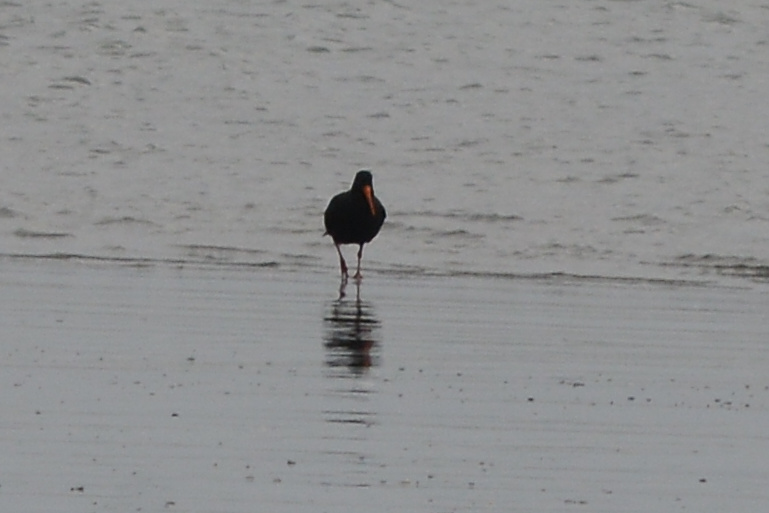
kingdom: Animalia
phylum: Chordata
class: Aves
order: Charadriiformes
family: Haematopodidae
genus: Haematopus
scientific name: Haematopus unicolor
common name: Variable oystercatcher
